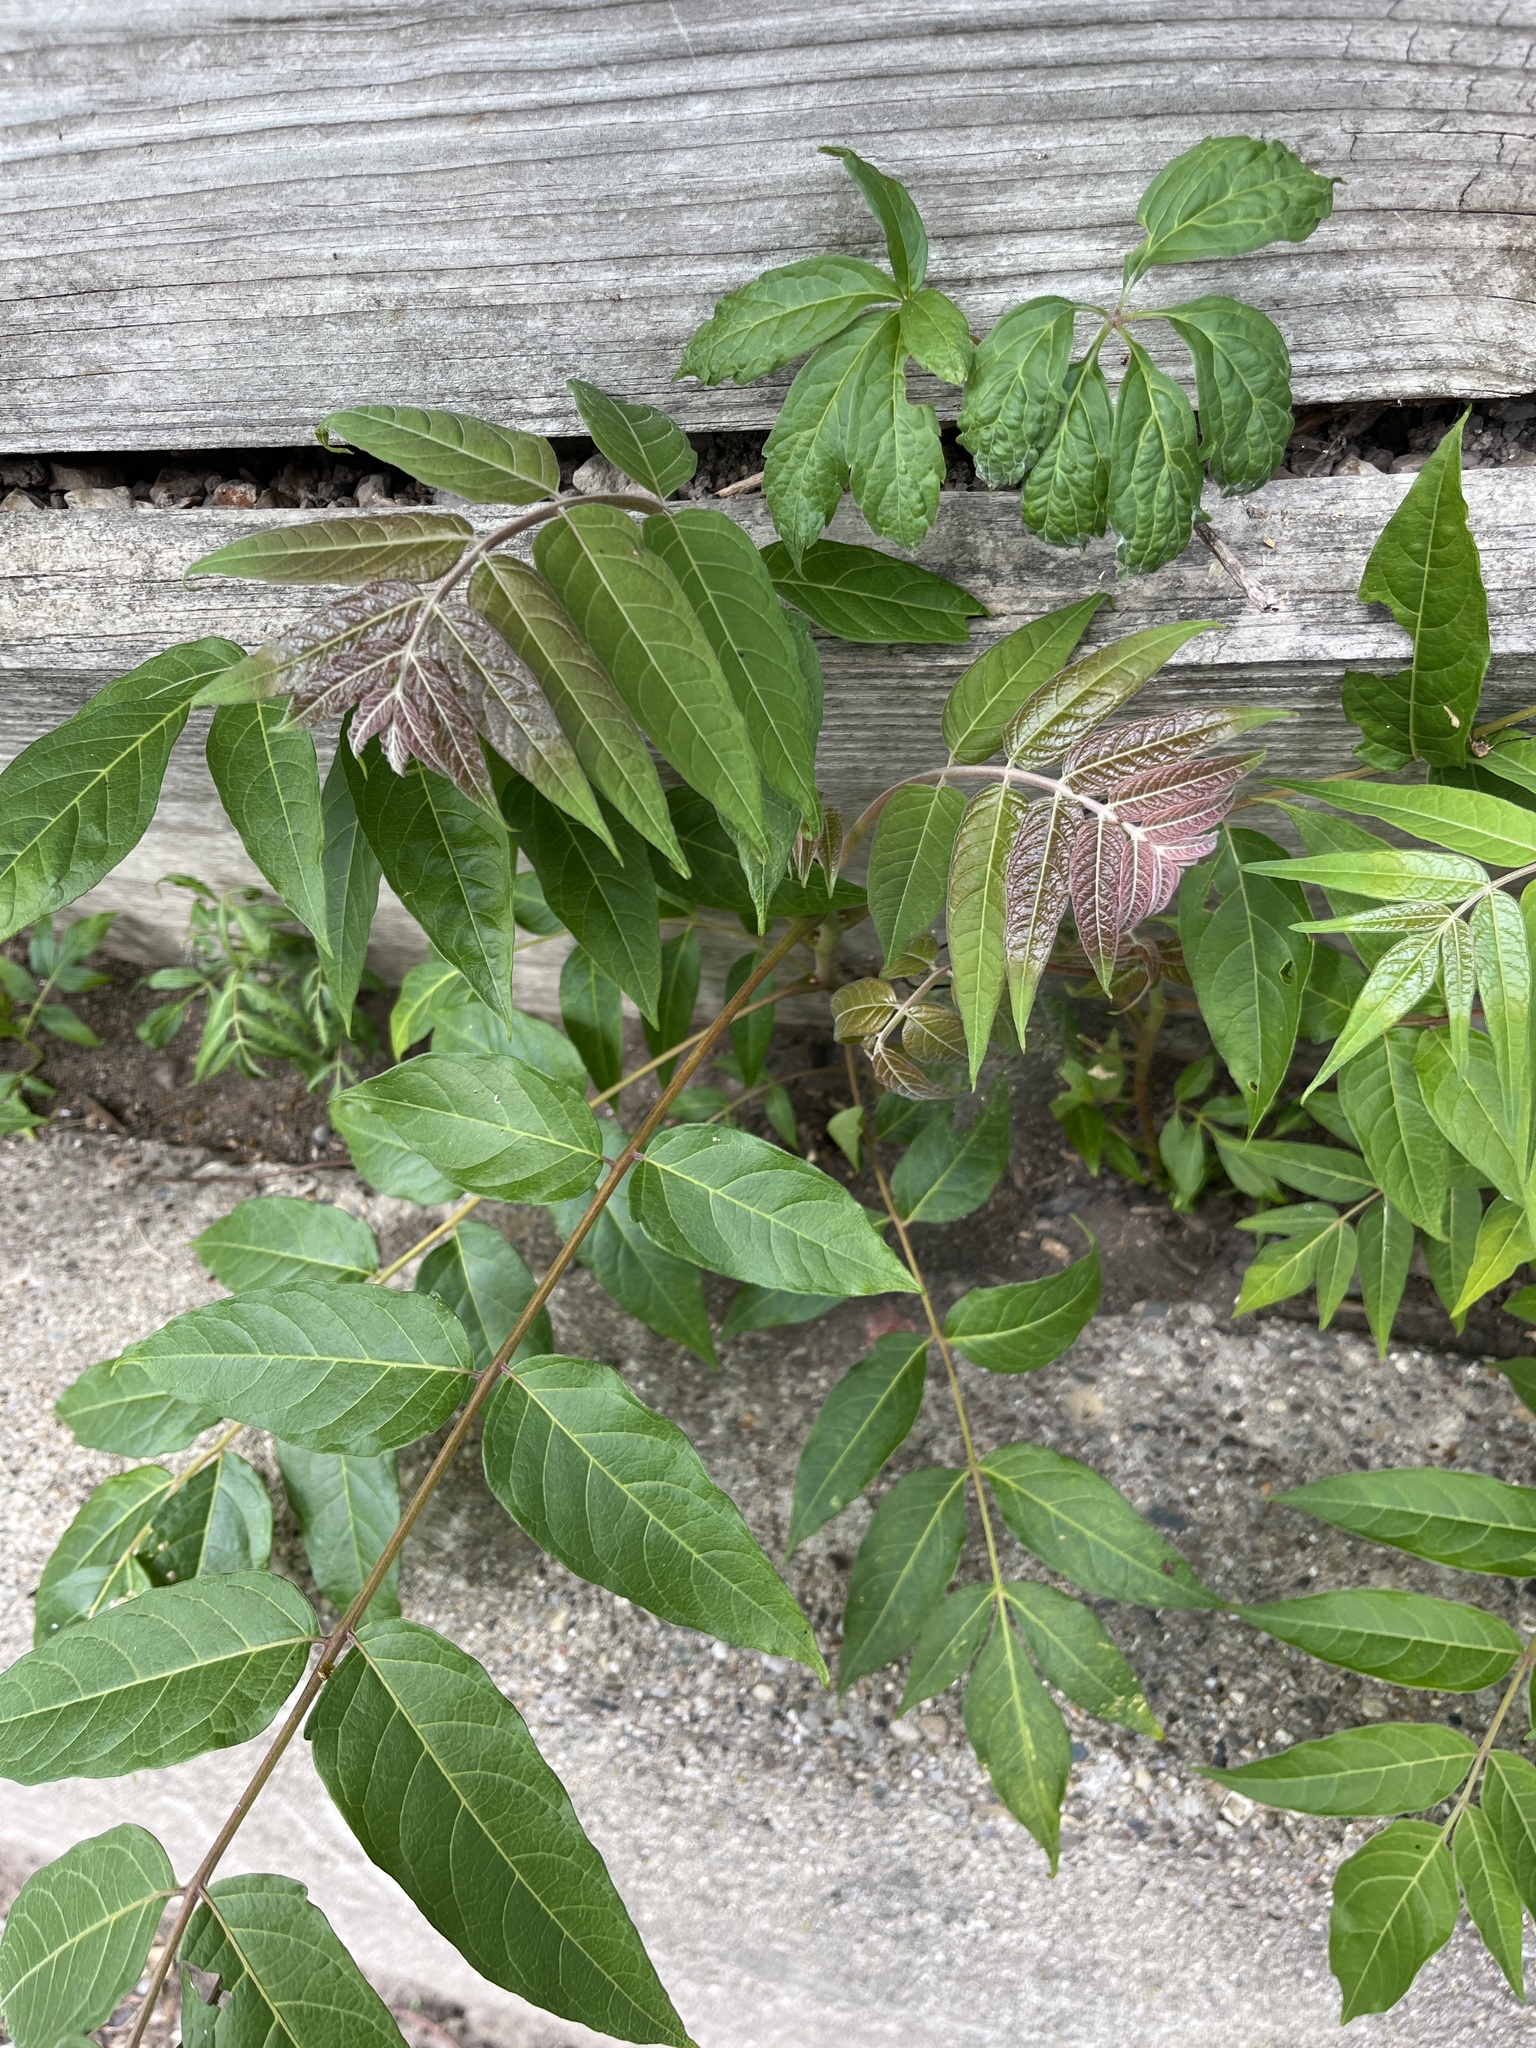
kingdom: Plantae
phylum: Tracheophyta
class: Magnoliopsida
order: Sapindales
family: Simaroubaceae
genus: Ailanthus
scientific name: Ailanthus altissima
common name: Tree-of-heaven
